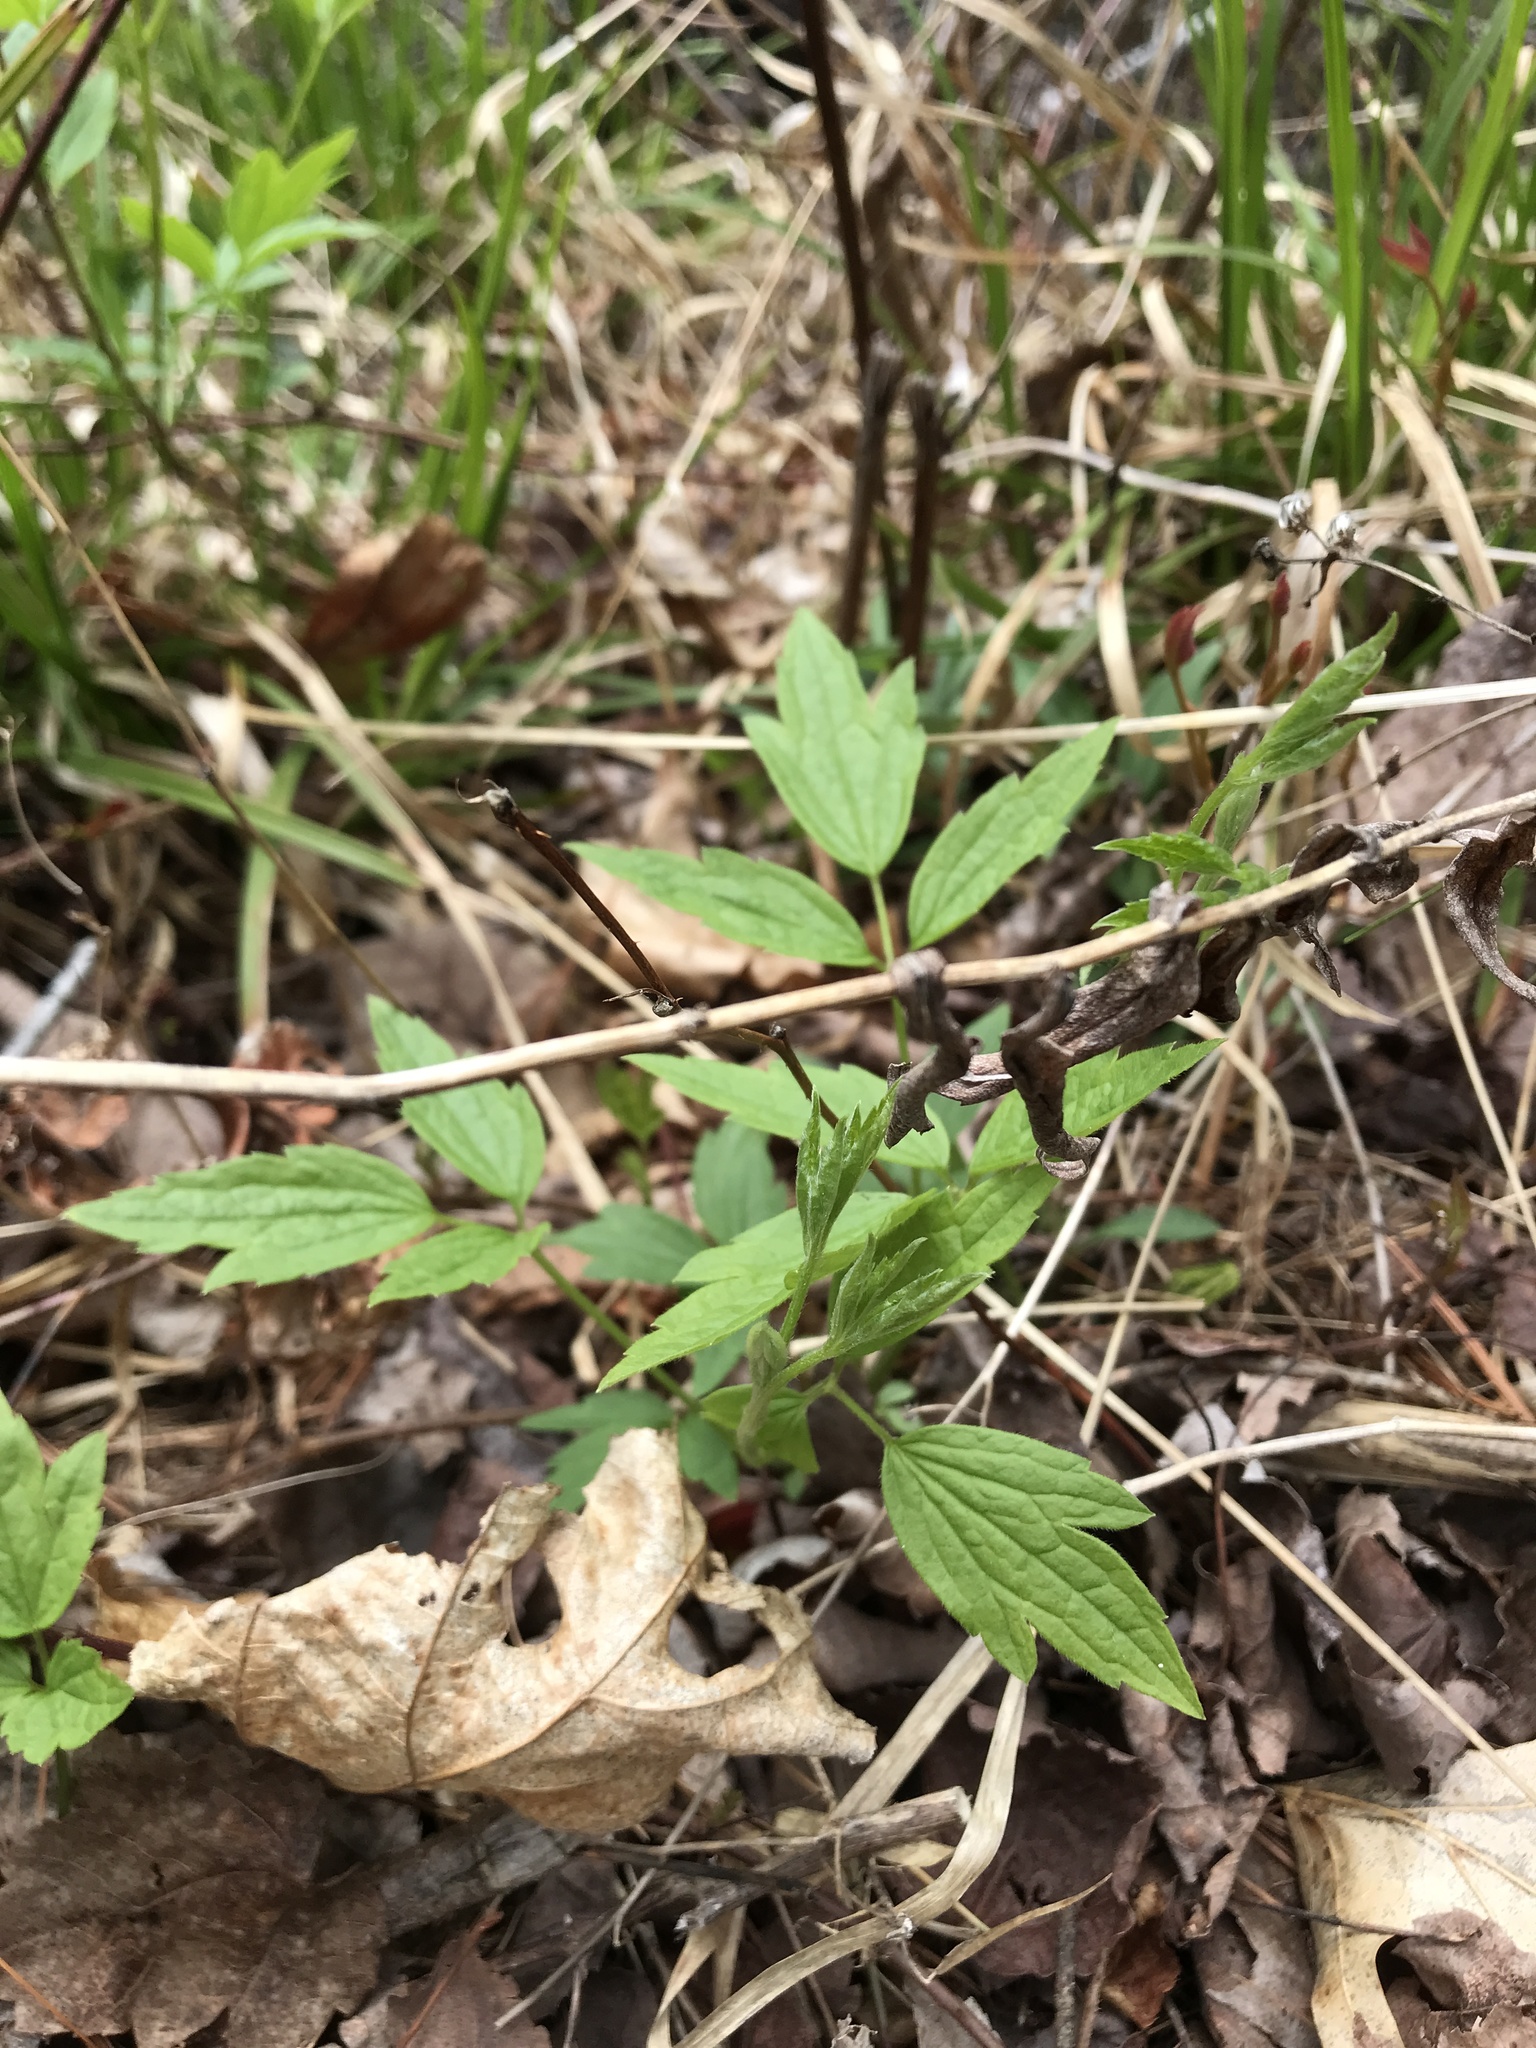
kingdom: Plantae
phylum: Tracheophyta
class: Magnoliopsida
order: Ranunculales
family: Ranunculaceae
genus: Clematis
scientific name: Clematis virginiana
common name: Virgin's-bower
